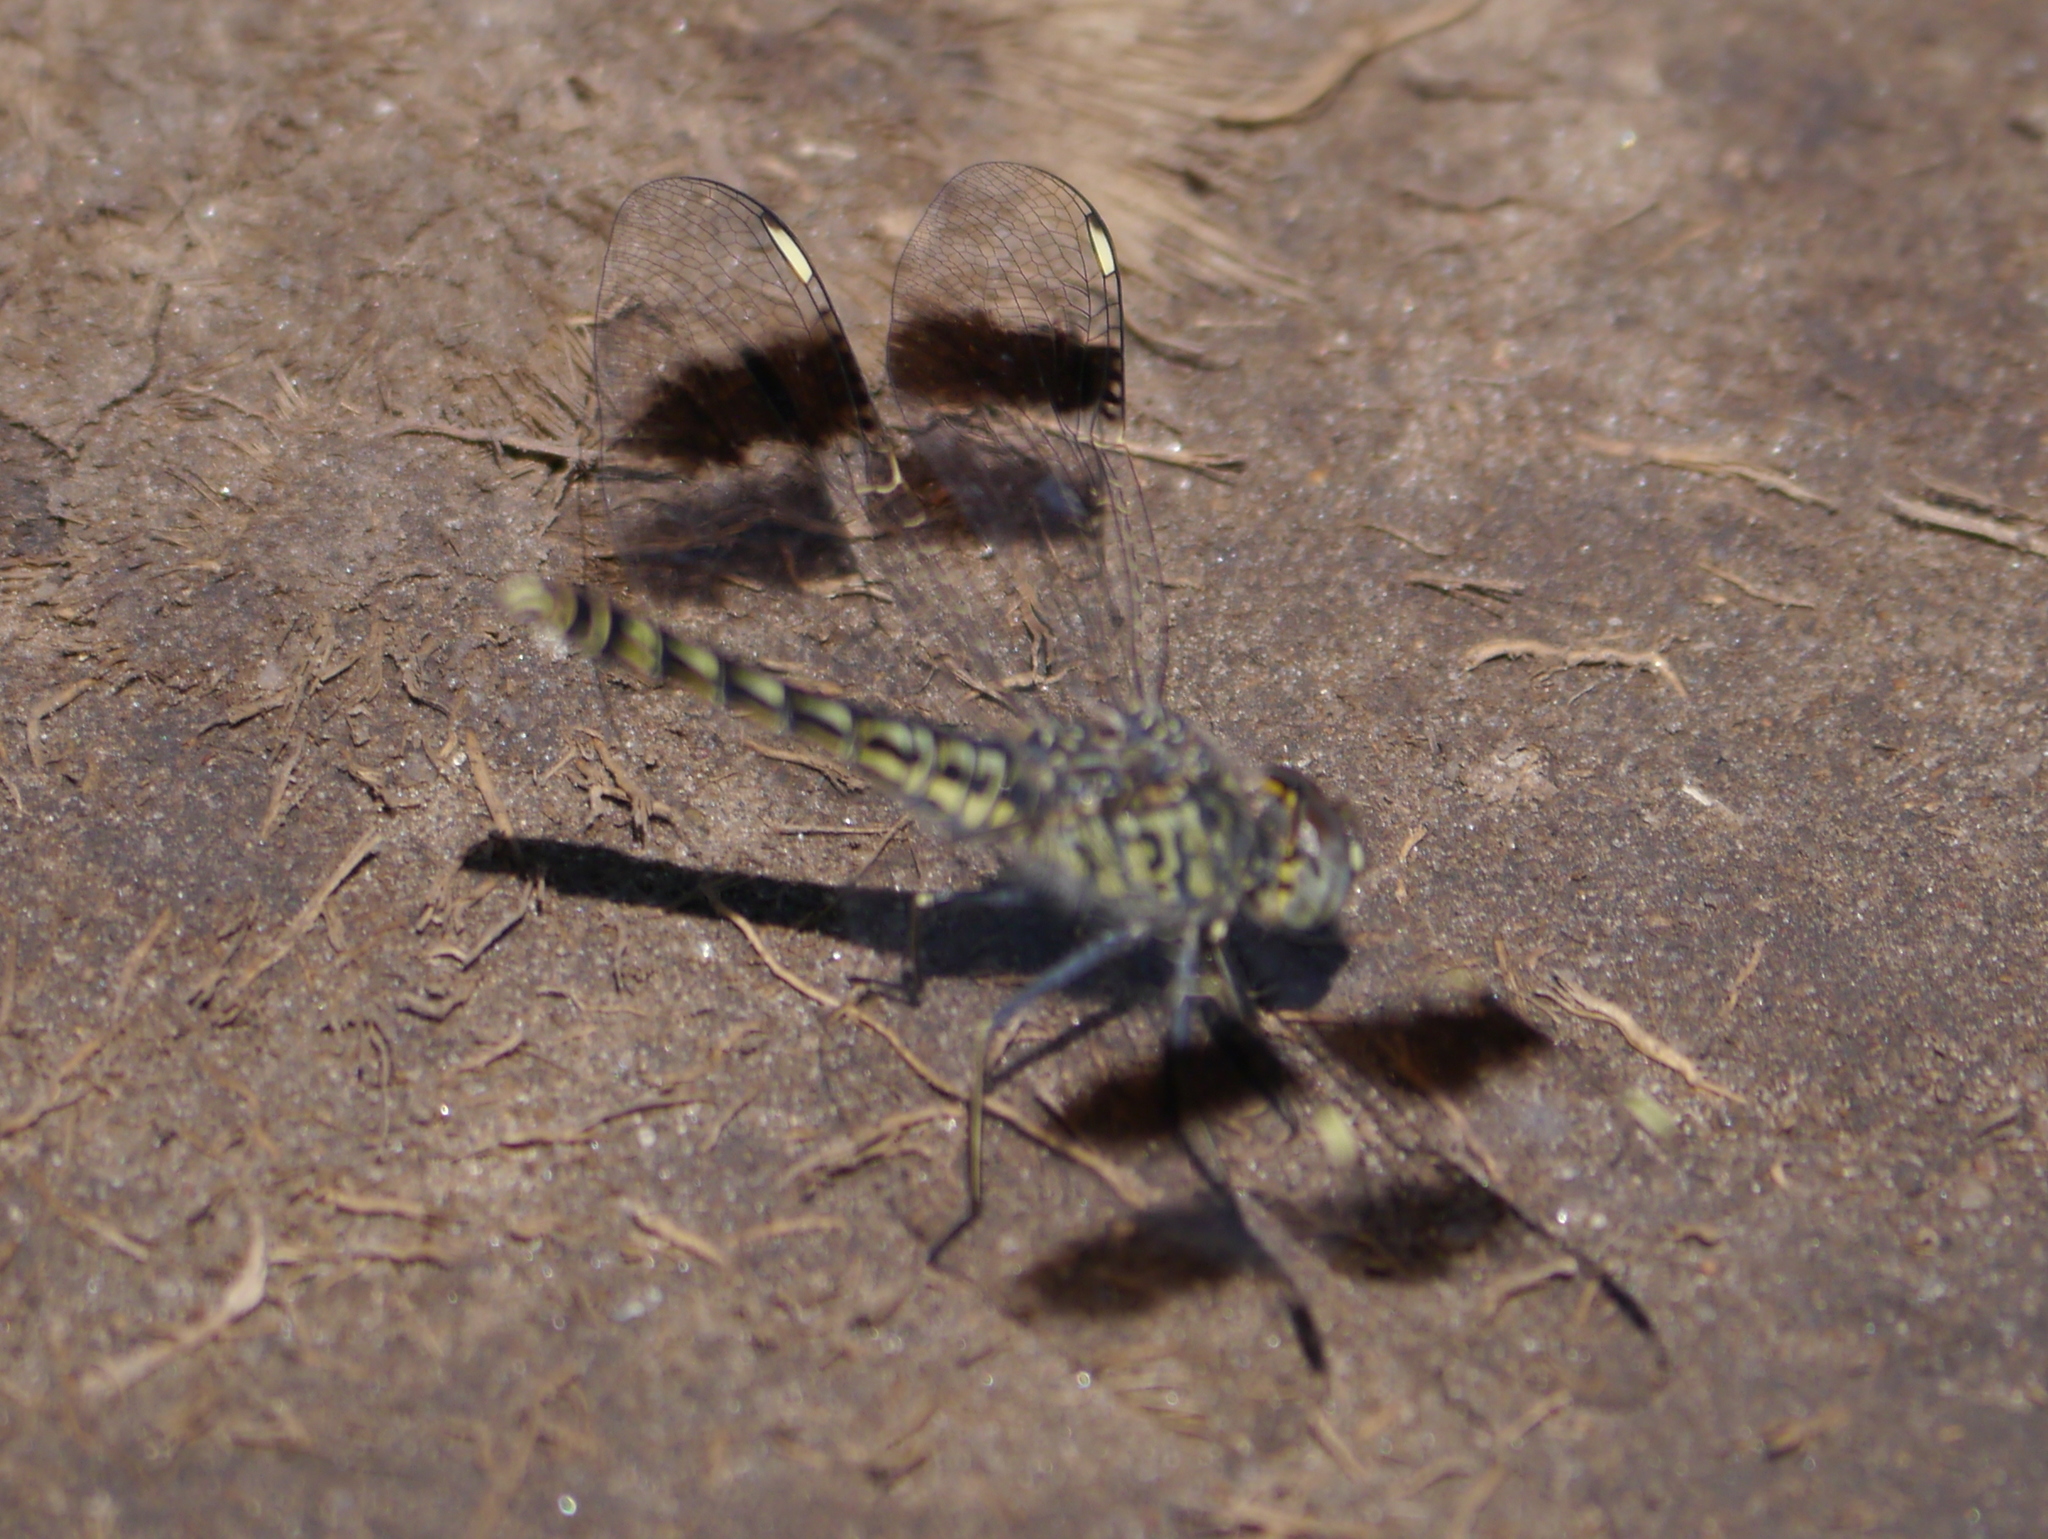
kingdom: Animalia
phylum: Arthropoda
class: Insecta
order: Odonata
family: Libellulidae
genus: Brachythemis
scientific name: Brachythemis leucosticta
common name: Banded groundling
